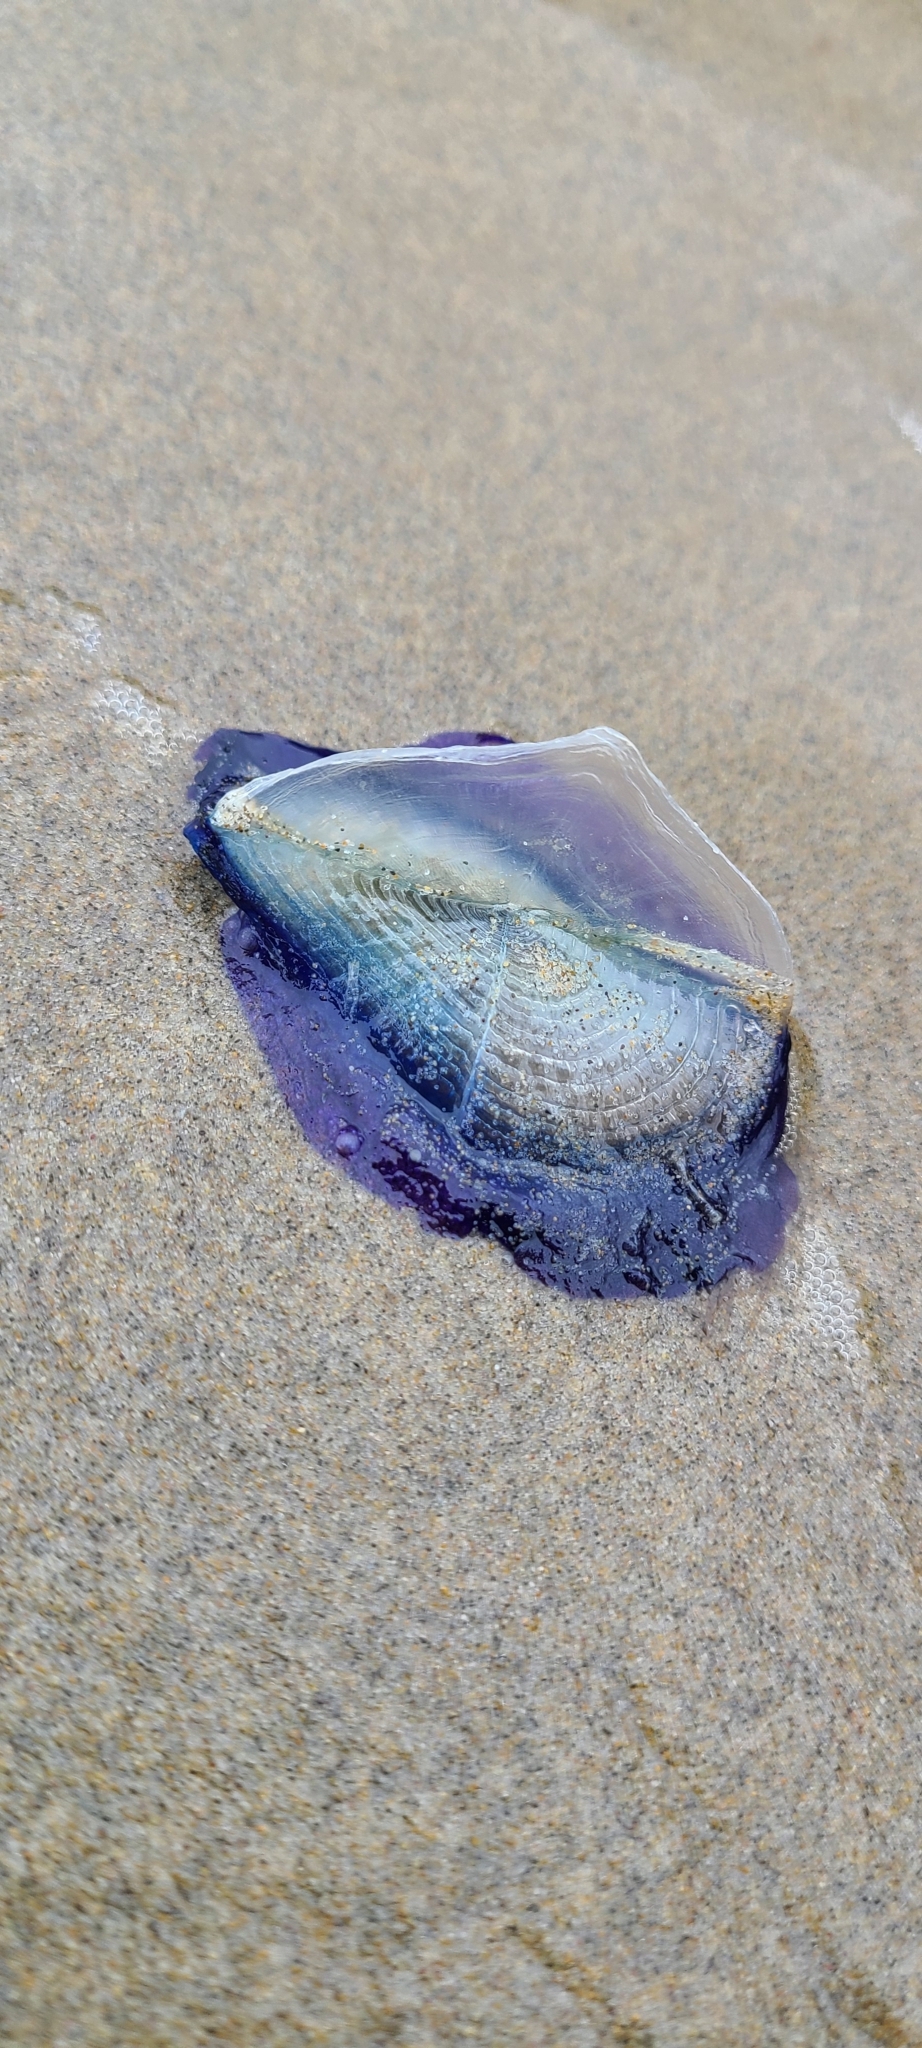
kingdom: Animalia
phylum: Cnidaria
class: Hydrozoa
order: Anthoathecata
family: Porpitidae
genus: Velella
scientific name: Velella velella
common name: By-the-wind-sailor
